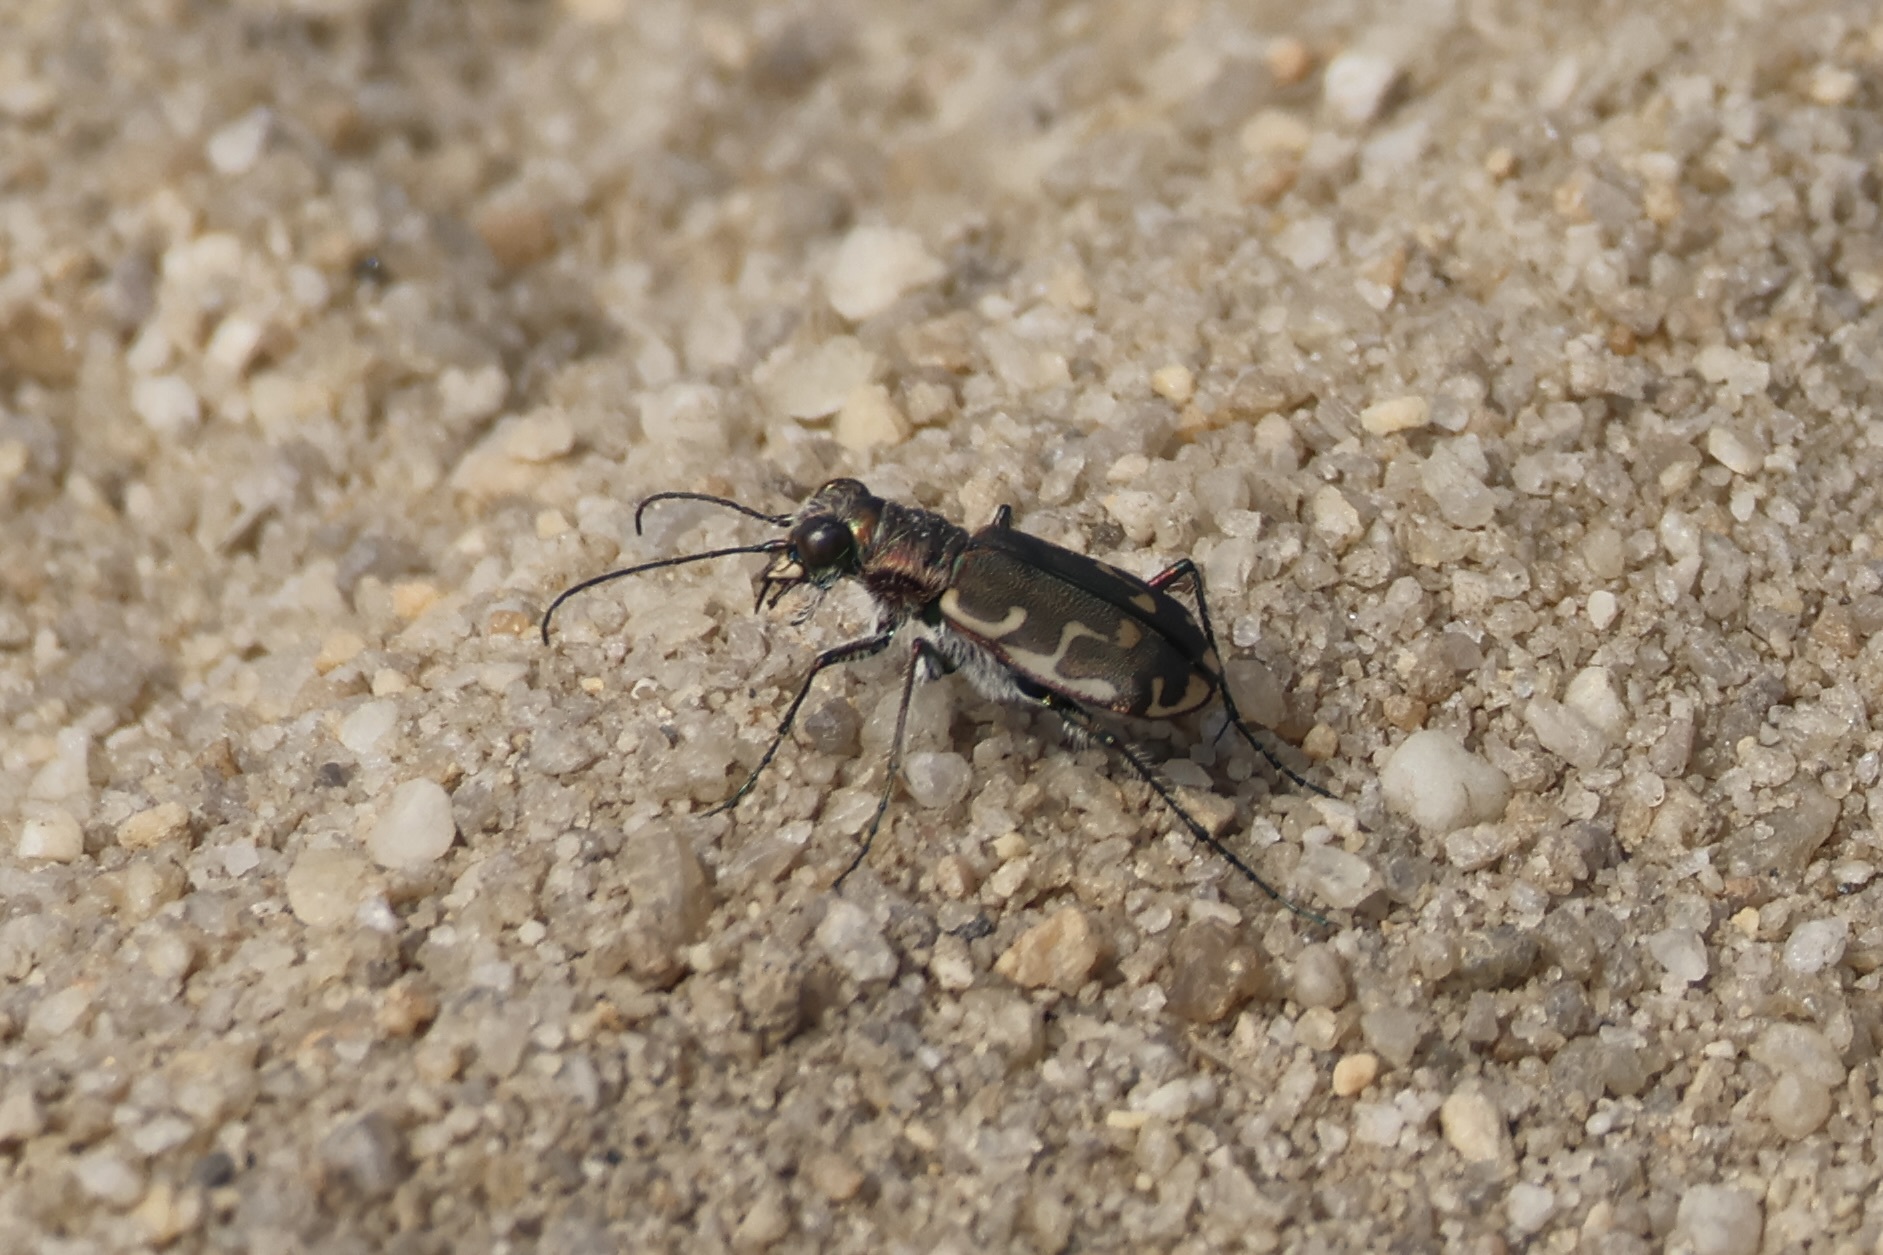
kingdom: Animalia
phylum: Arthropoda
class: Insecta
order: Coleoptera
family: Carabidae
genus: Cicindela
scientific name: Cicindela repanda
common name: Bronzed tiger beetle
